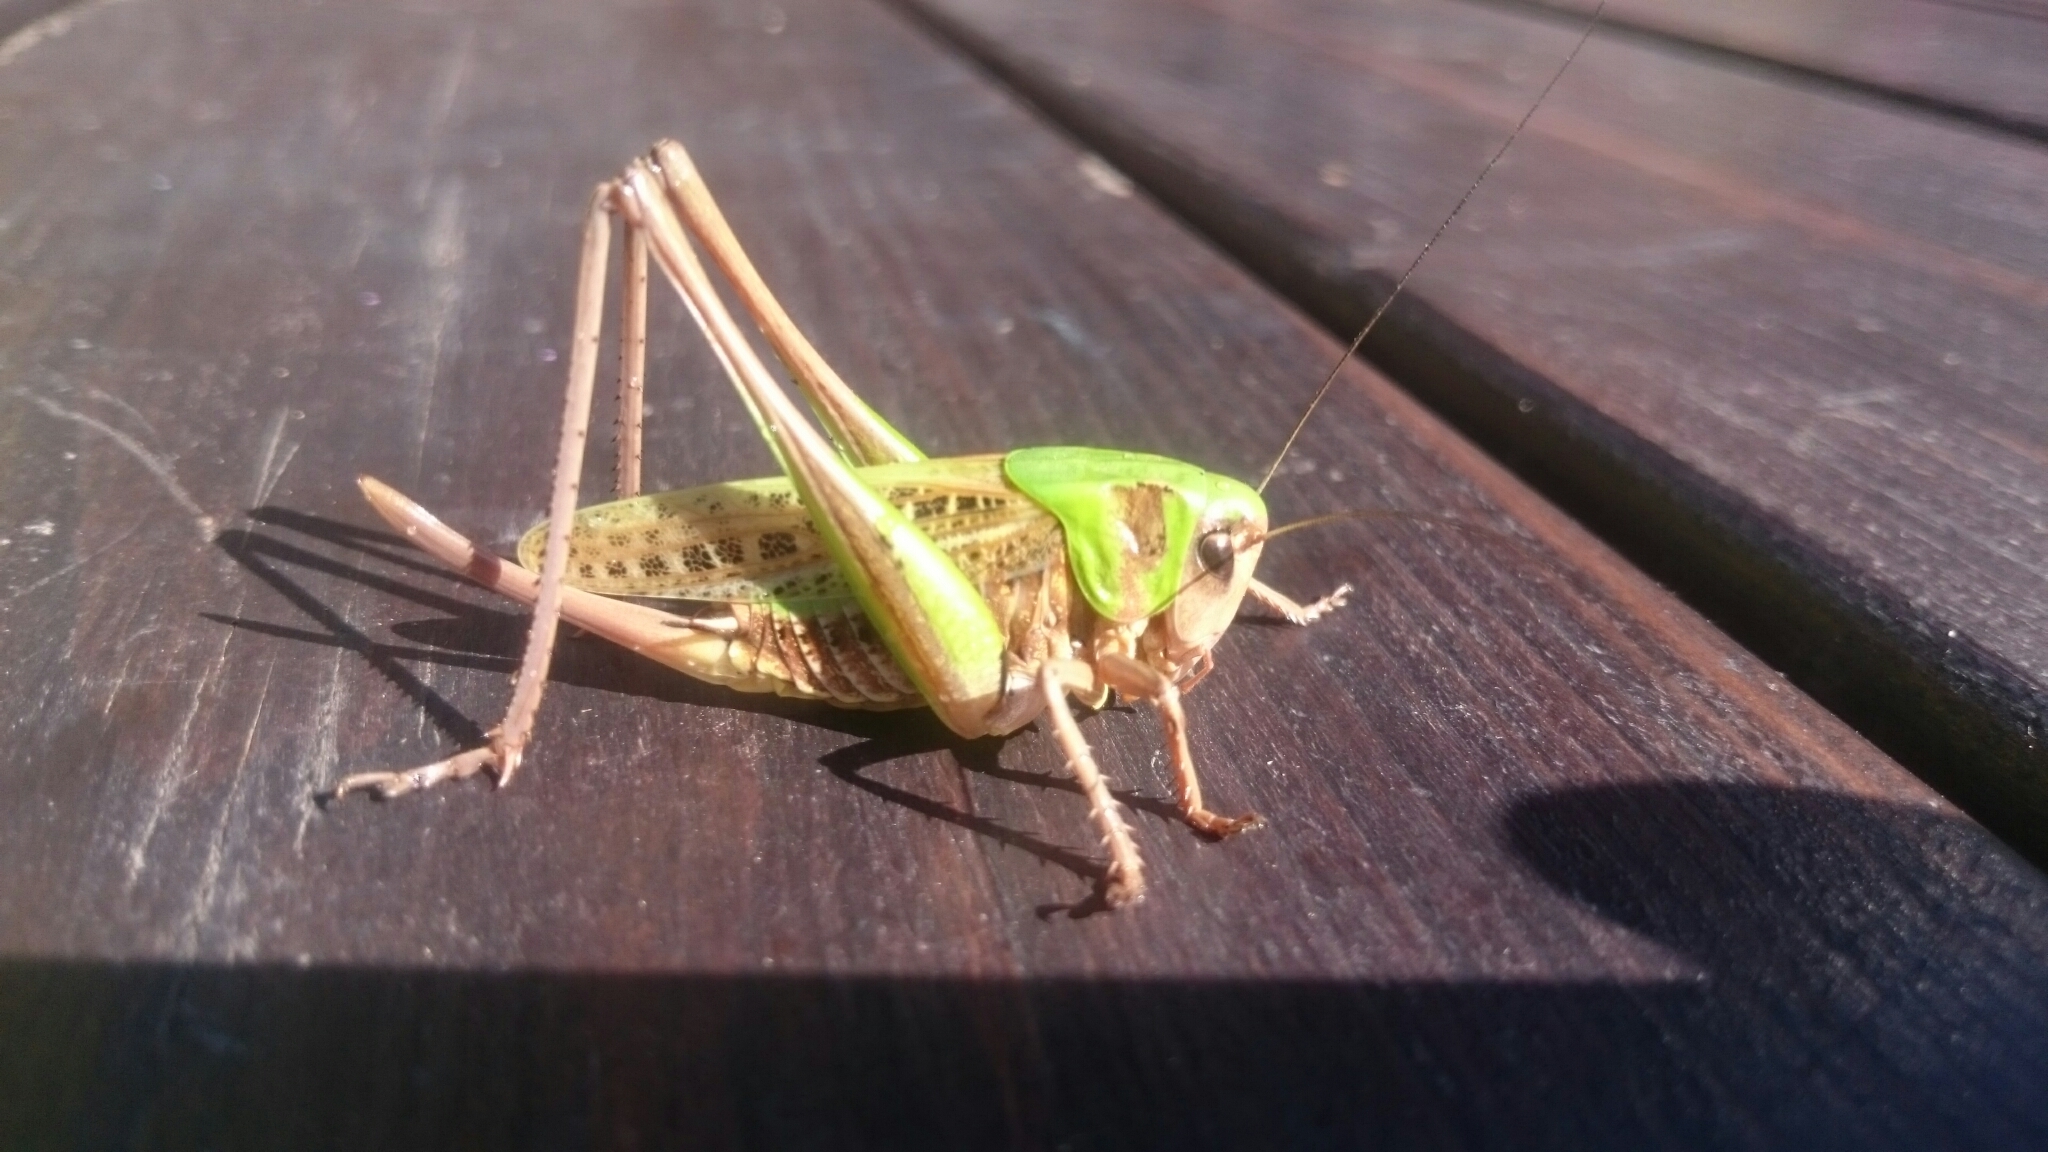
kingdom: Animalia
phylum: Arthropoda
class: Insecta
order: Orthoptera
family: Tettigoniidae
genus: Decticus
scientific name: Decticus verrucivorus
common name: Wart-biter
